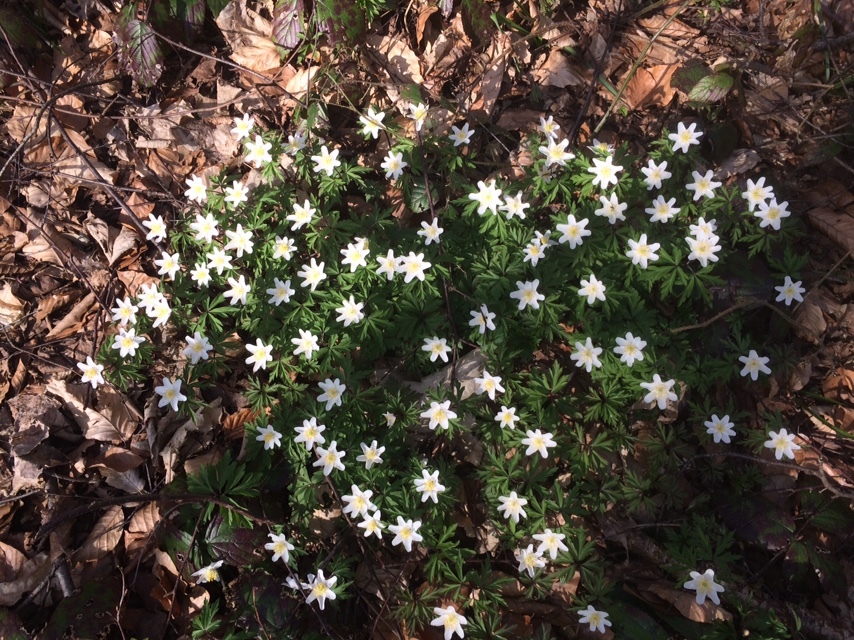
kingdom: Plantae
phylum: Tracheophyta
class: Magnoliopsida
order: Ranunculales
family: Ranunculaceae
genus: Anemone
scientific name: Anemone nemorosa
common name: Wood anemone
